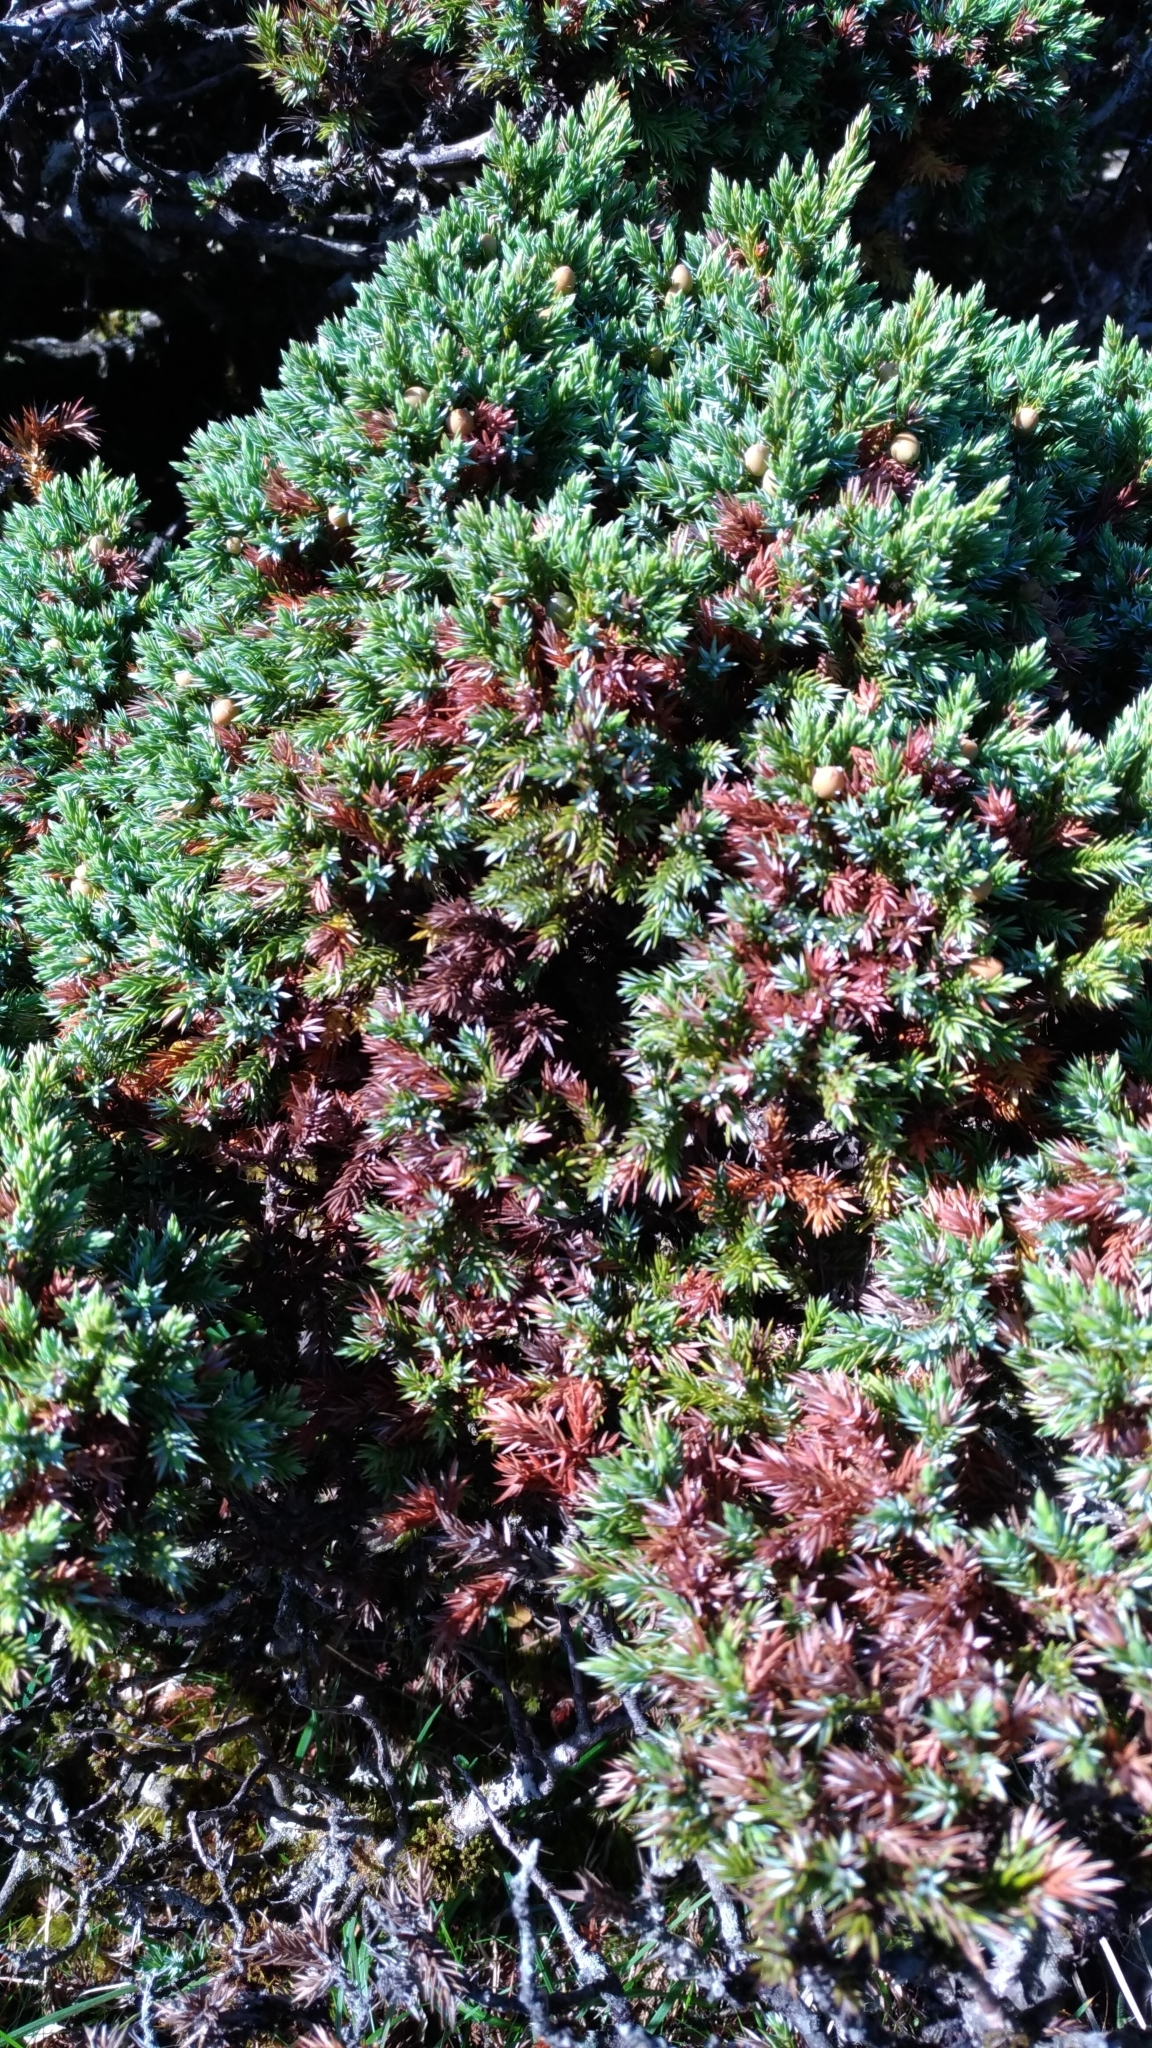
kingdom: Plantae
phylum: Tracheophyta
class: Pinopsida
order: Pinales
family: Cupressaceae
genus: Juniperus
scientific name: Juniperus squamata
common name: Flaky juniper
